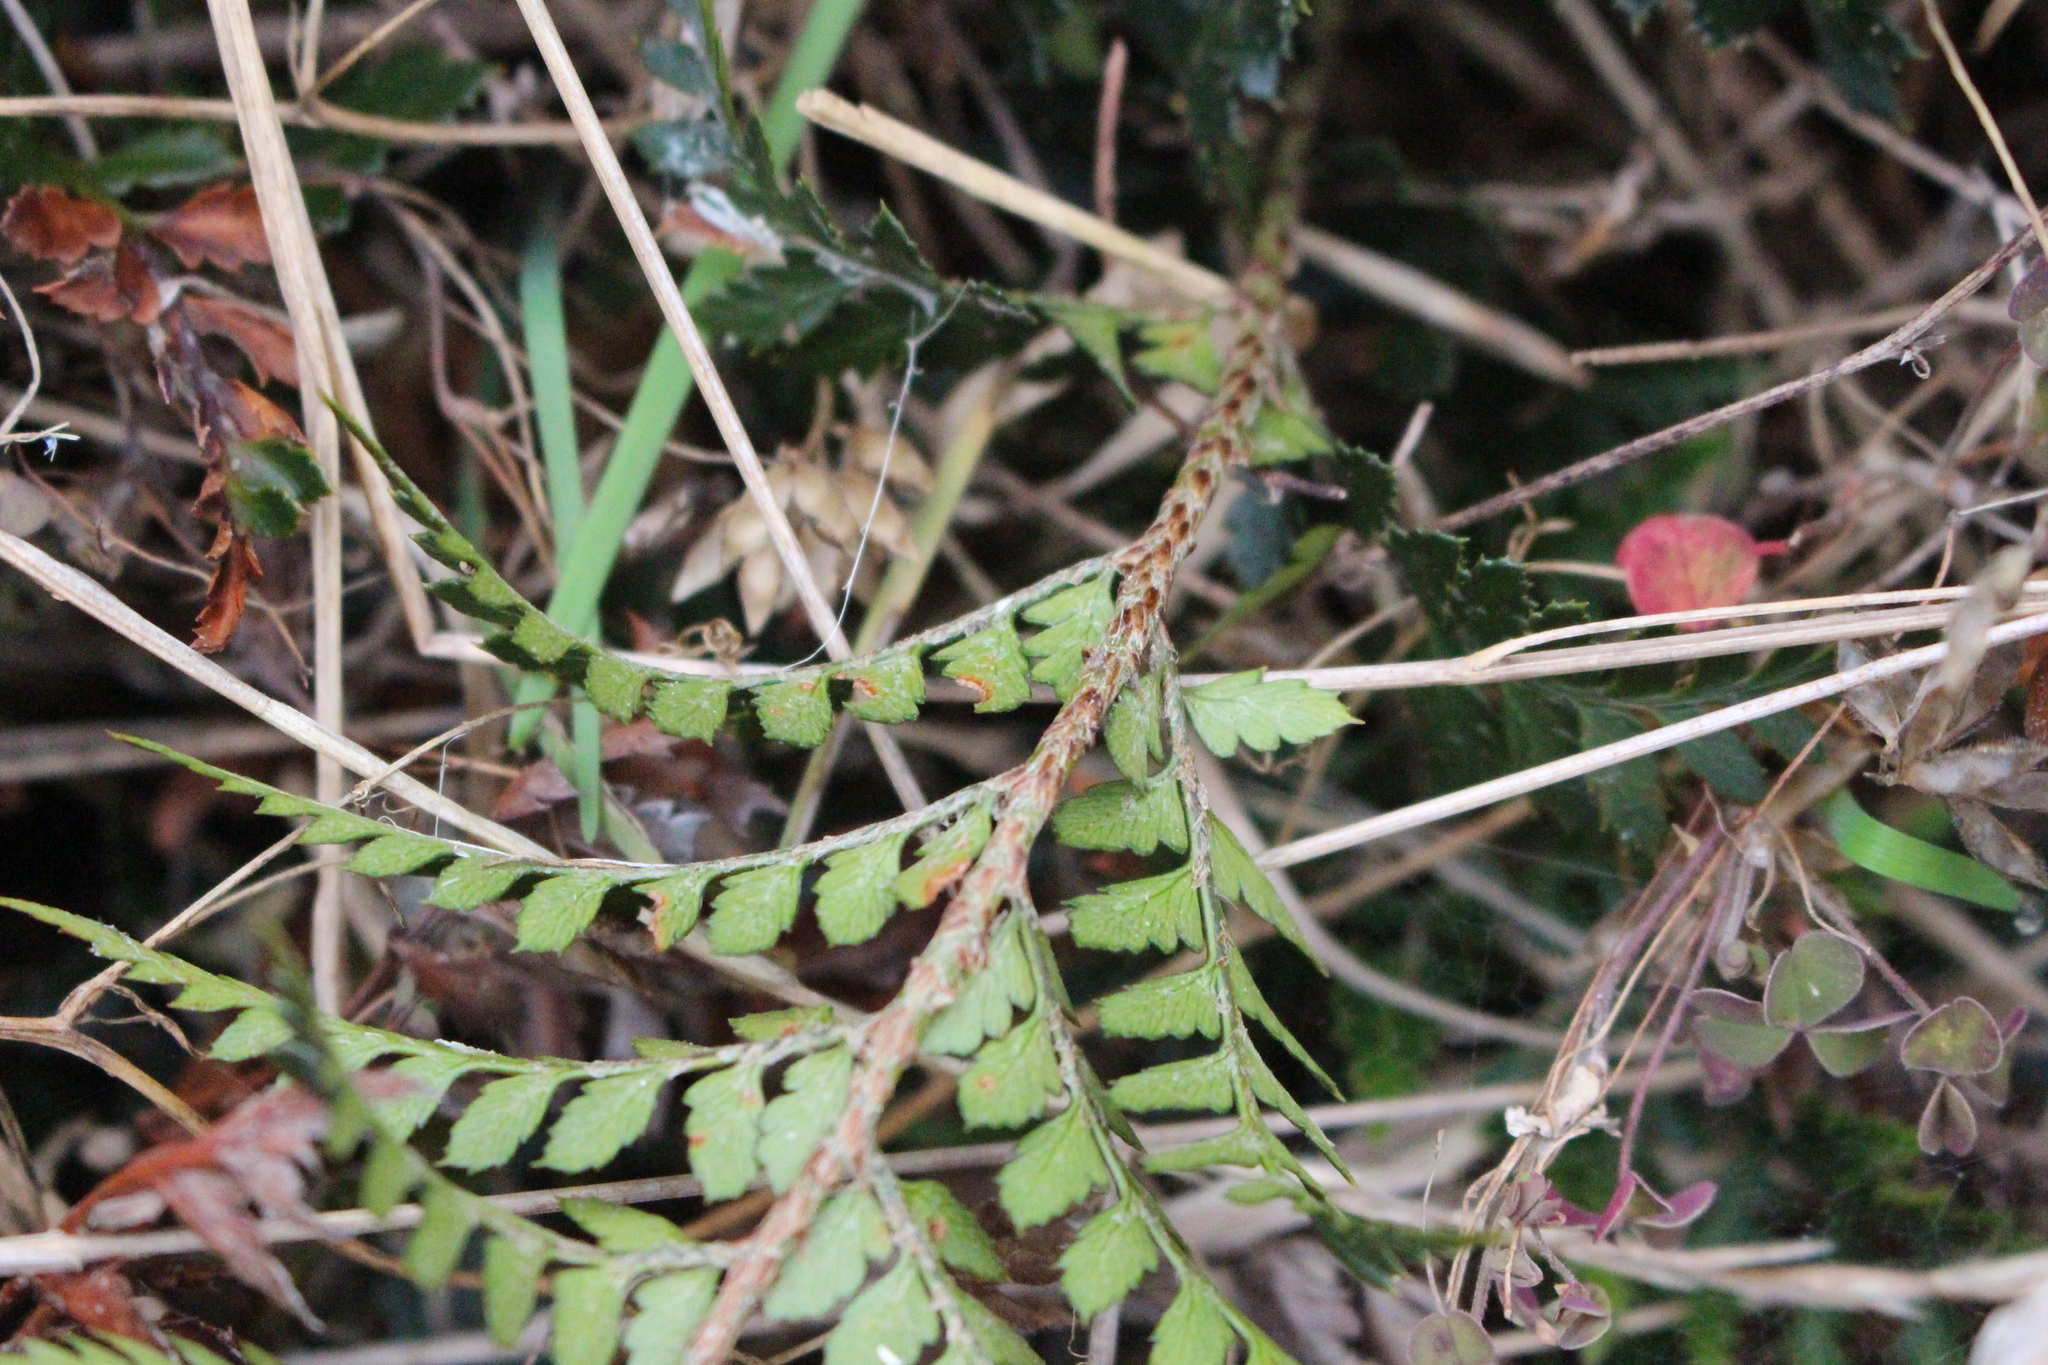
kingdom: Plantae
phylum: Tracheophyta
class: Polypodiopsida
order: Polypodiales
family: Dryopteridaceae
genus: Polystichum
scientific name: Polystichum oculatum
